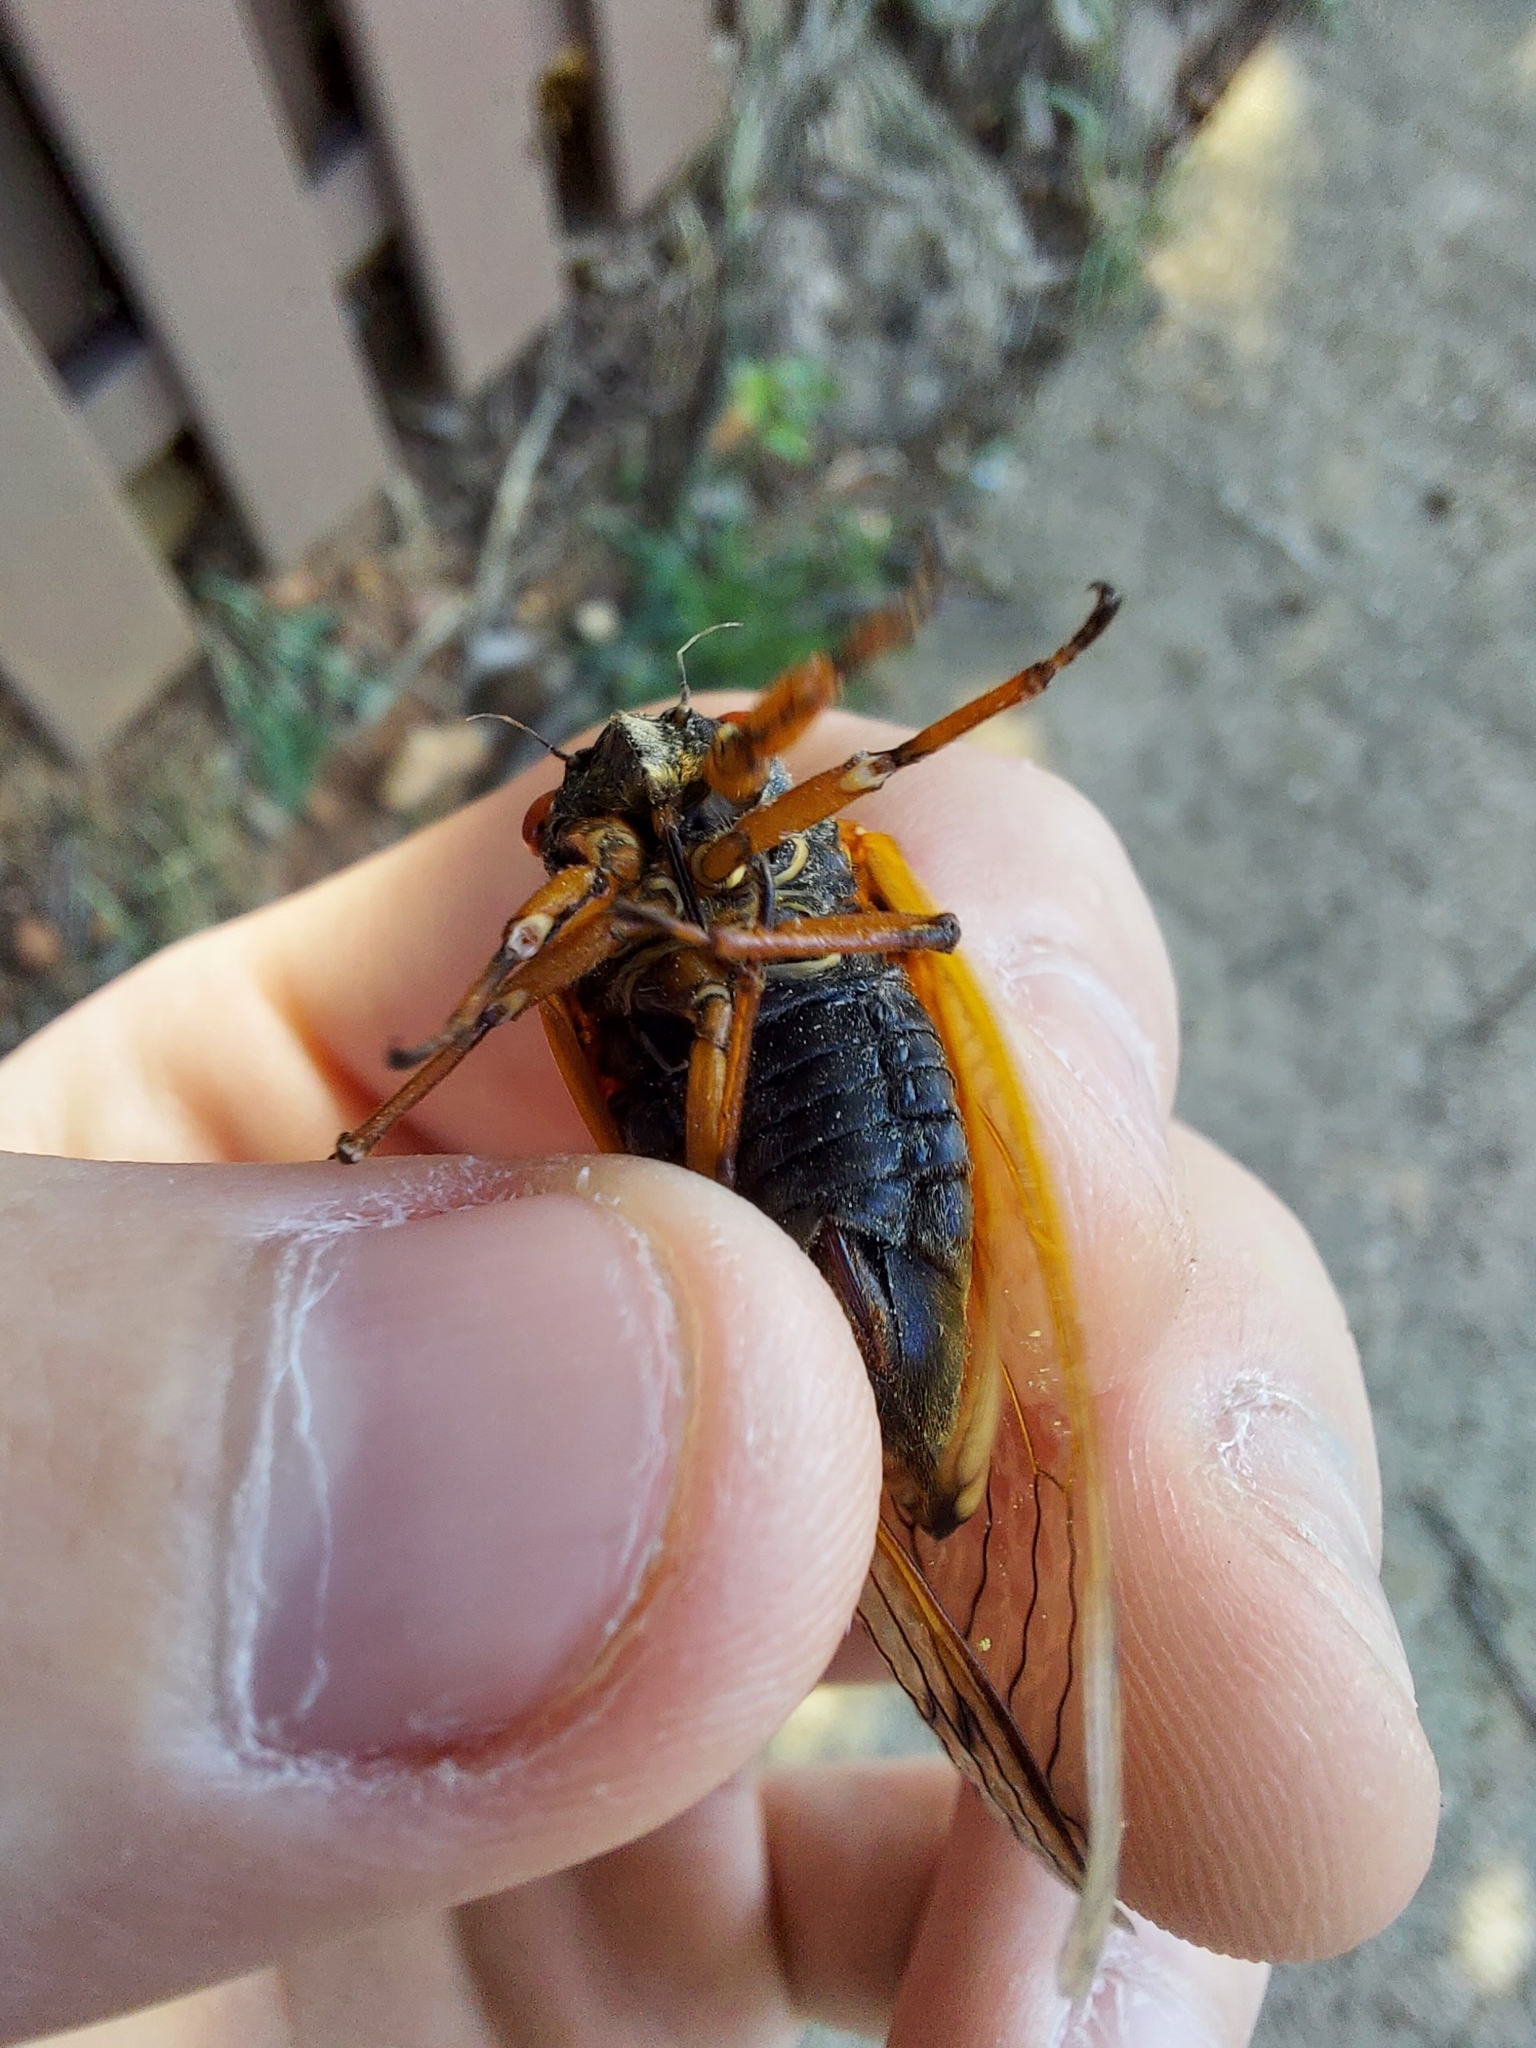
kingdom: Animalia
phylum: Arthropoda
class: Insecta
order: Hemiptera
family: Cicadidae
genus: Magicicada
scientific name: Magicicada cassini
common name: Cassin's 17-year cicada
